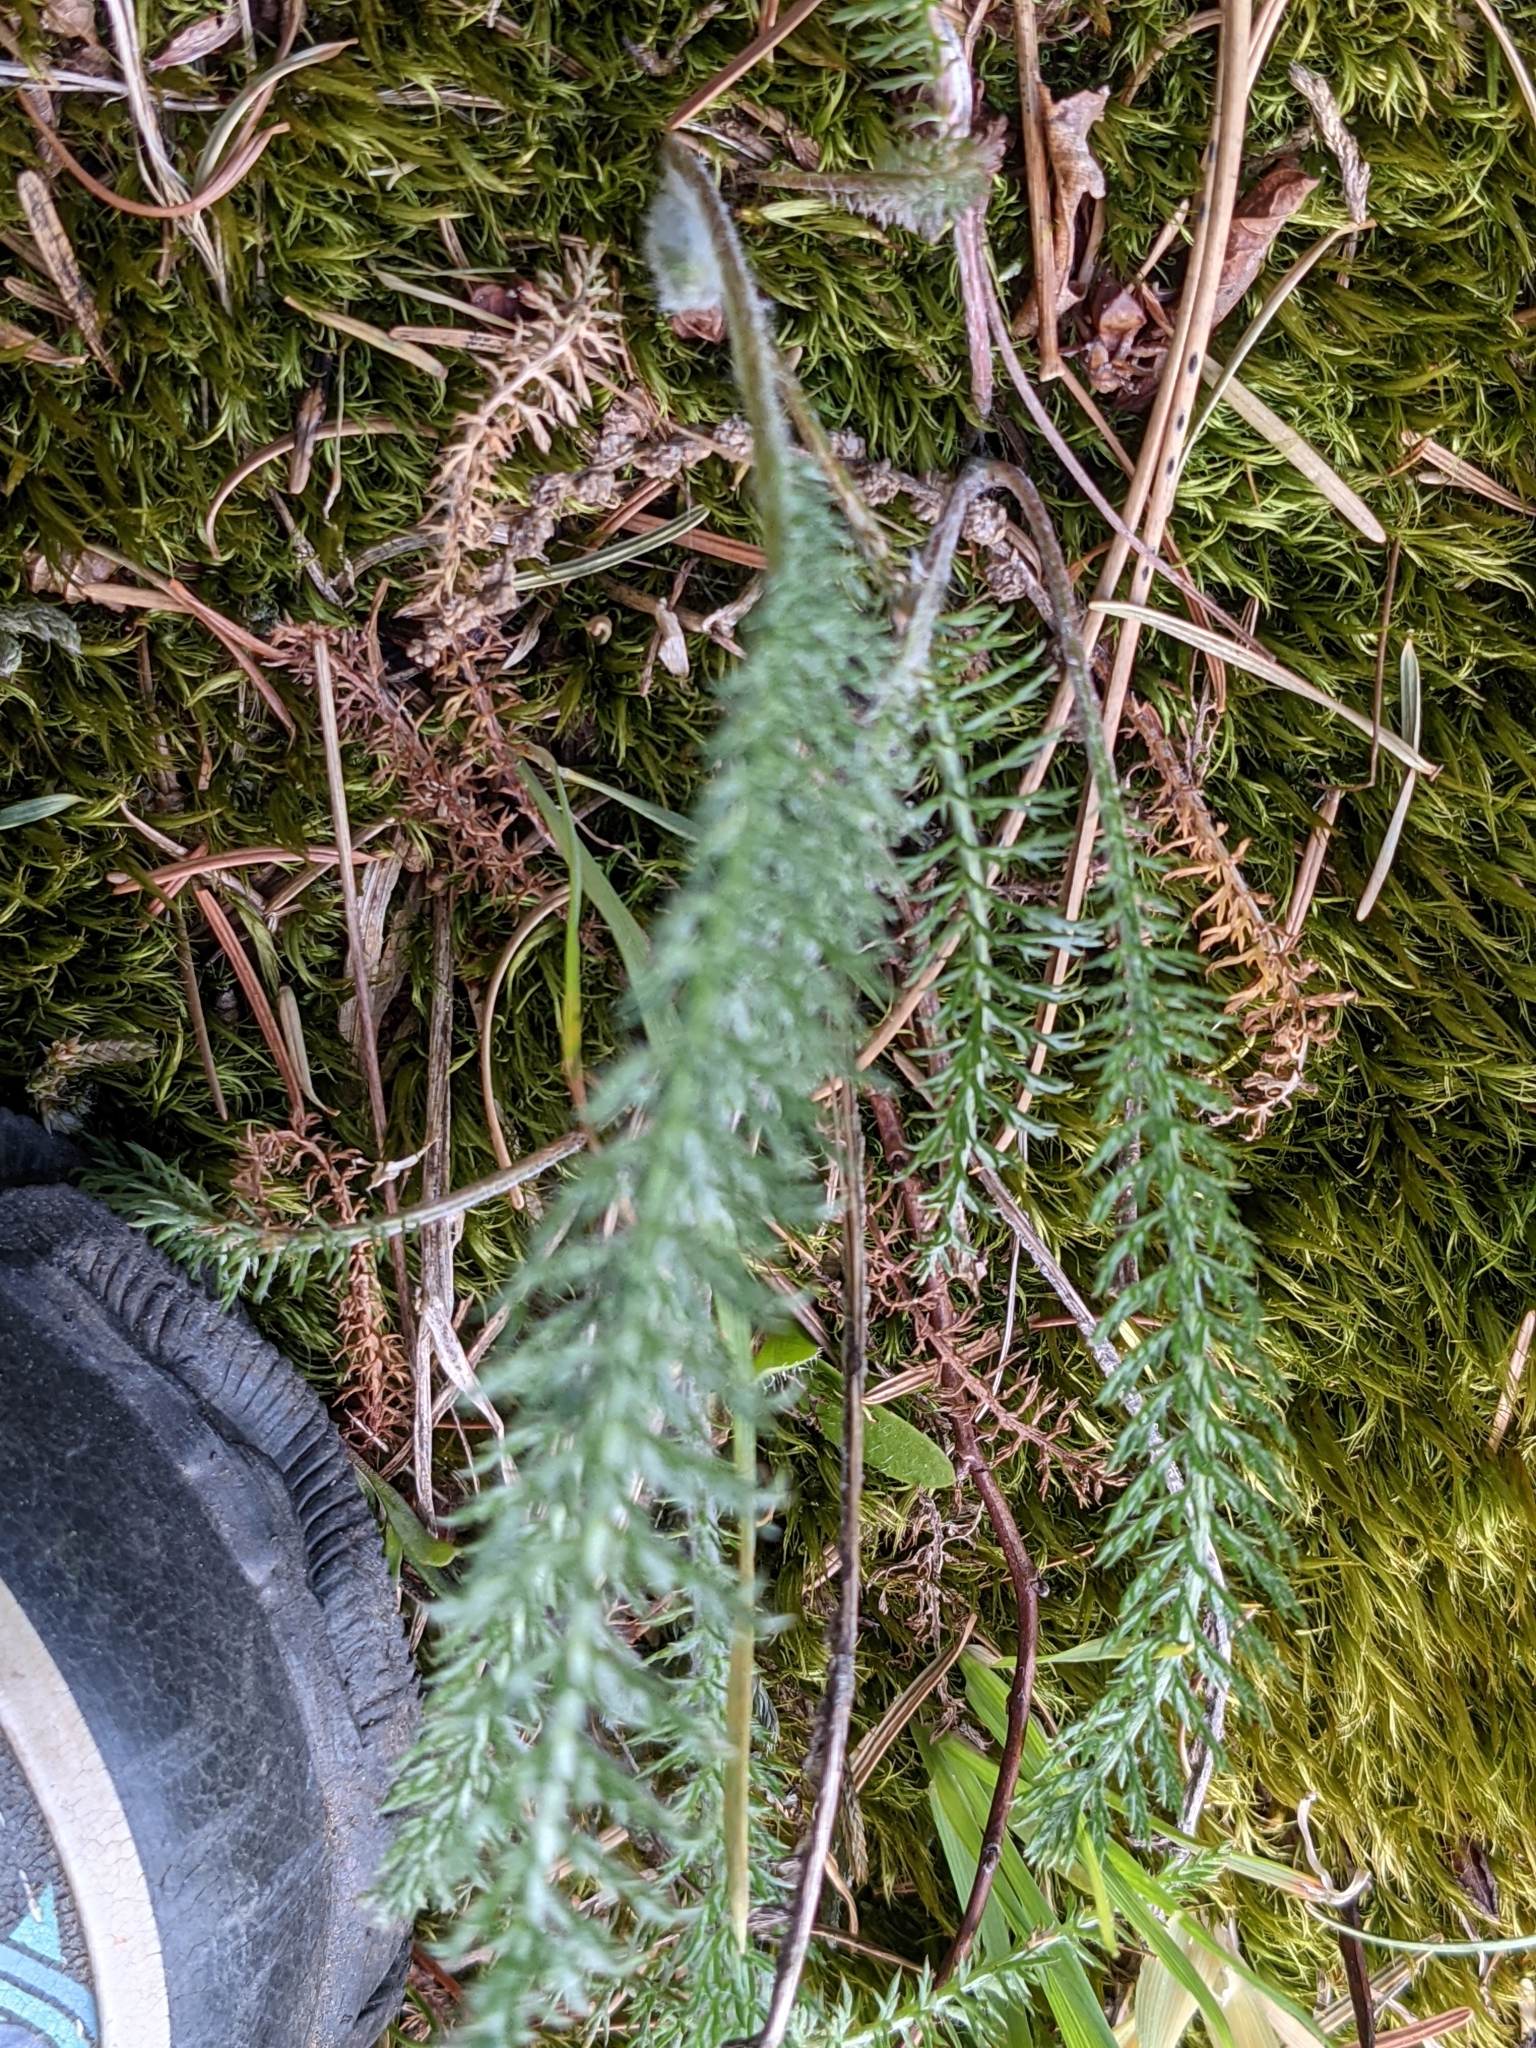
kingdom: Plantae
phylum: Tracheophyta
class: Magnoliopsida
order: Asterales
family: Asteraceae
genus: Achillea
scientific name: Achillea millefolium
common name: Yarrow
